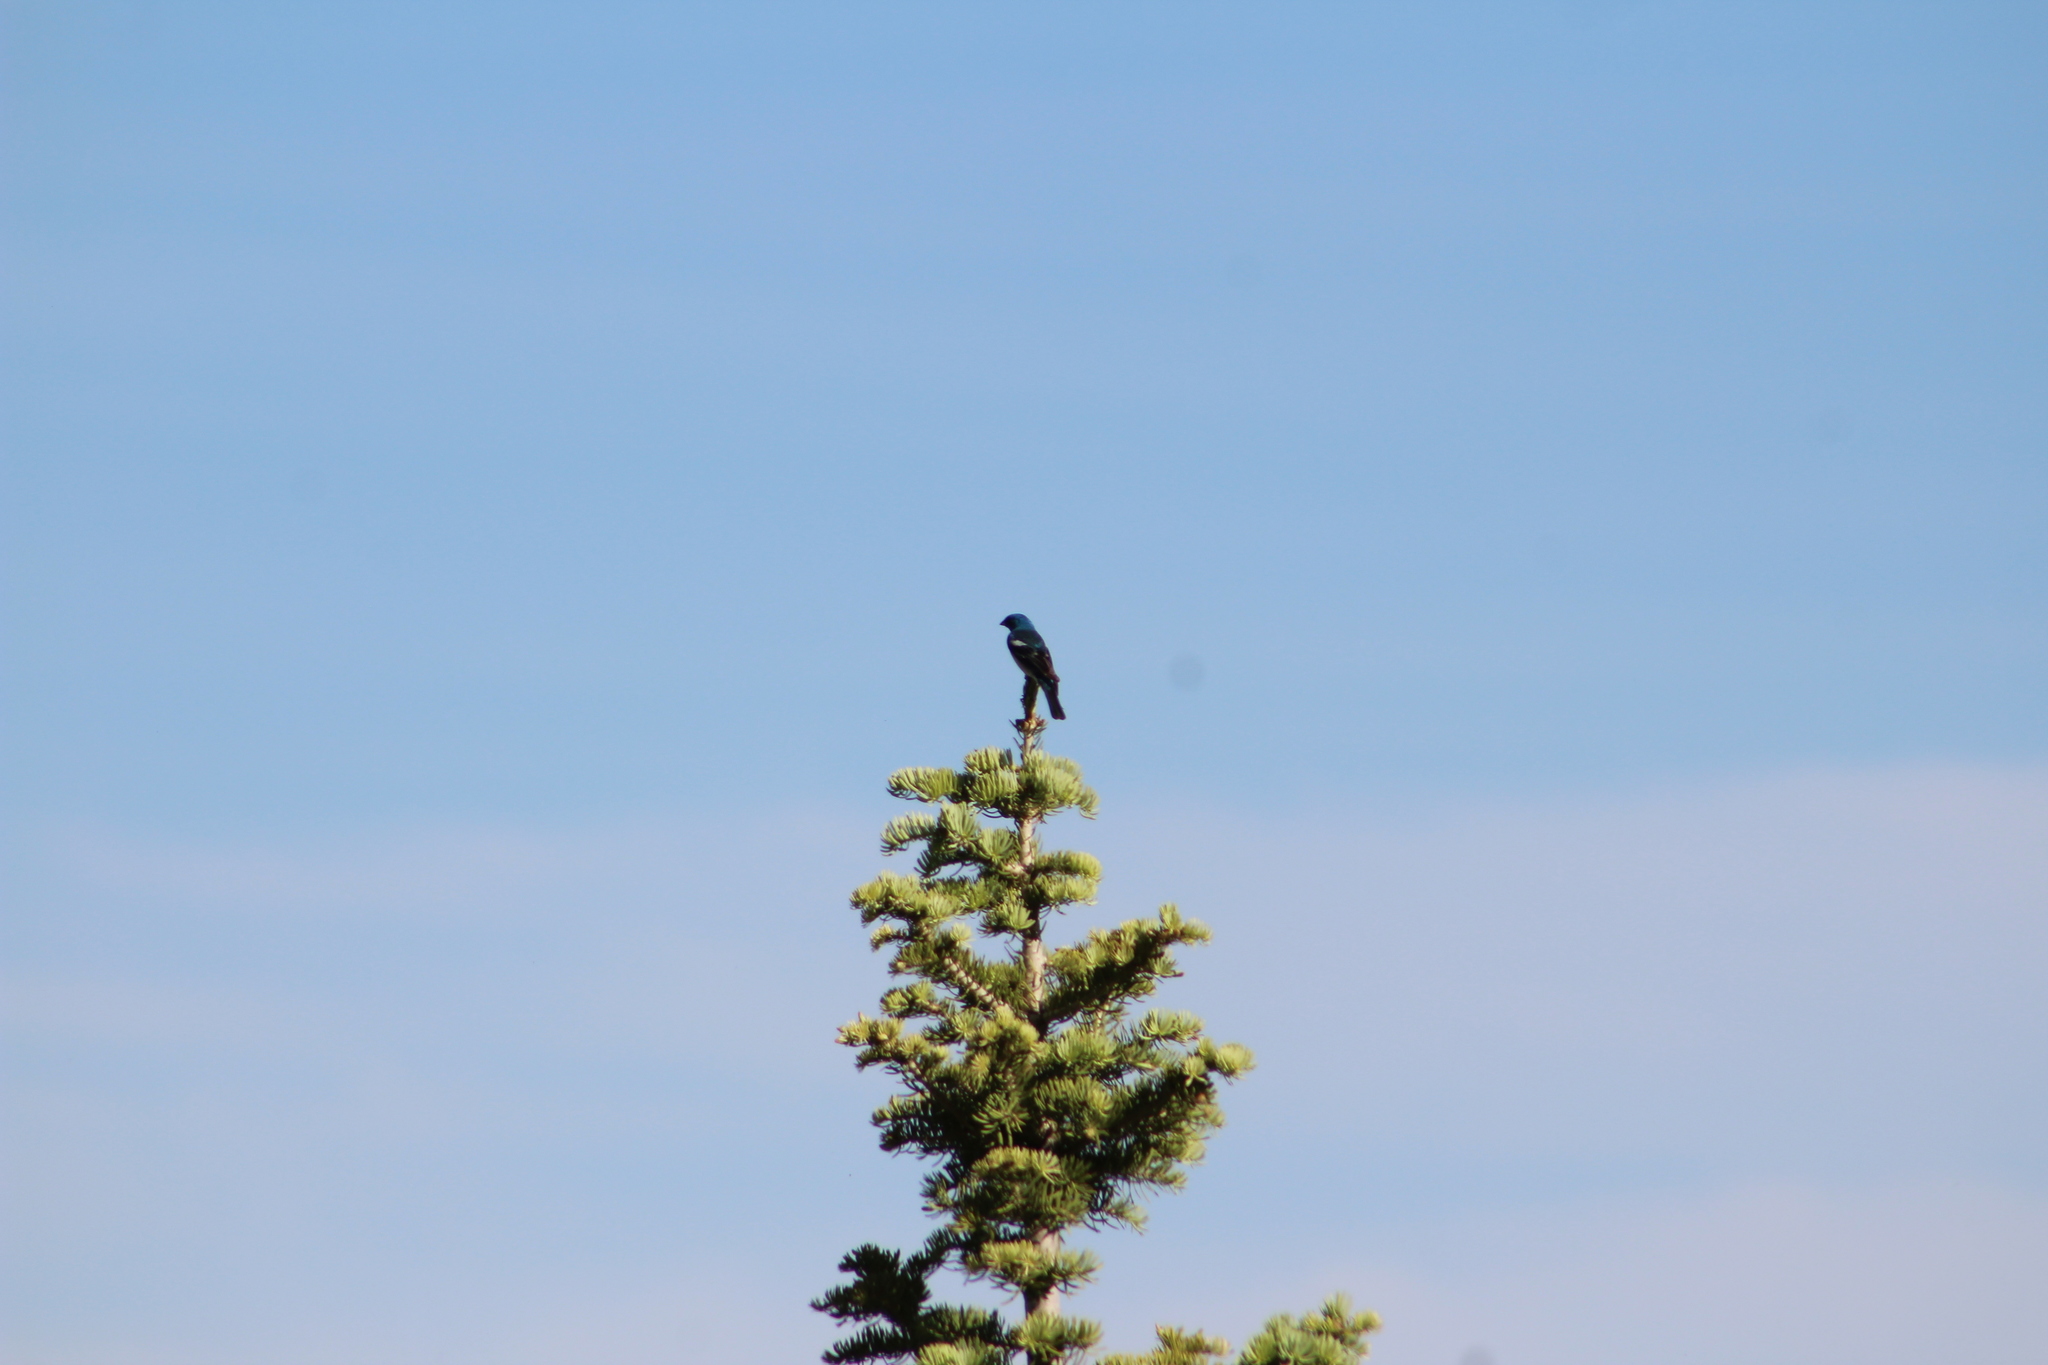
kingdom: Animalia
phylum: Chordata
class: Aves
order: Passeriformes
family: Cardinalidae
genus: Passerina
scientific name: Passerina amoena
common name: Lazuli bunting
